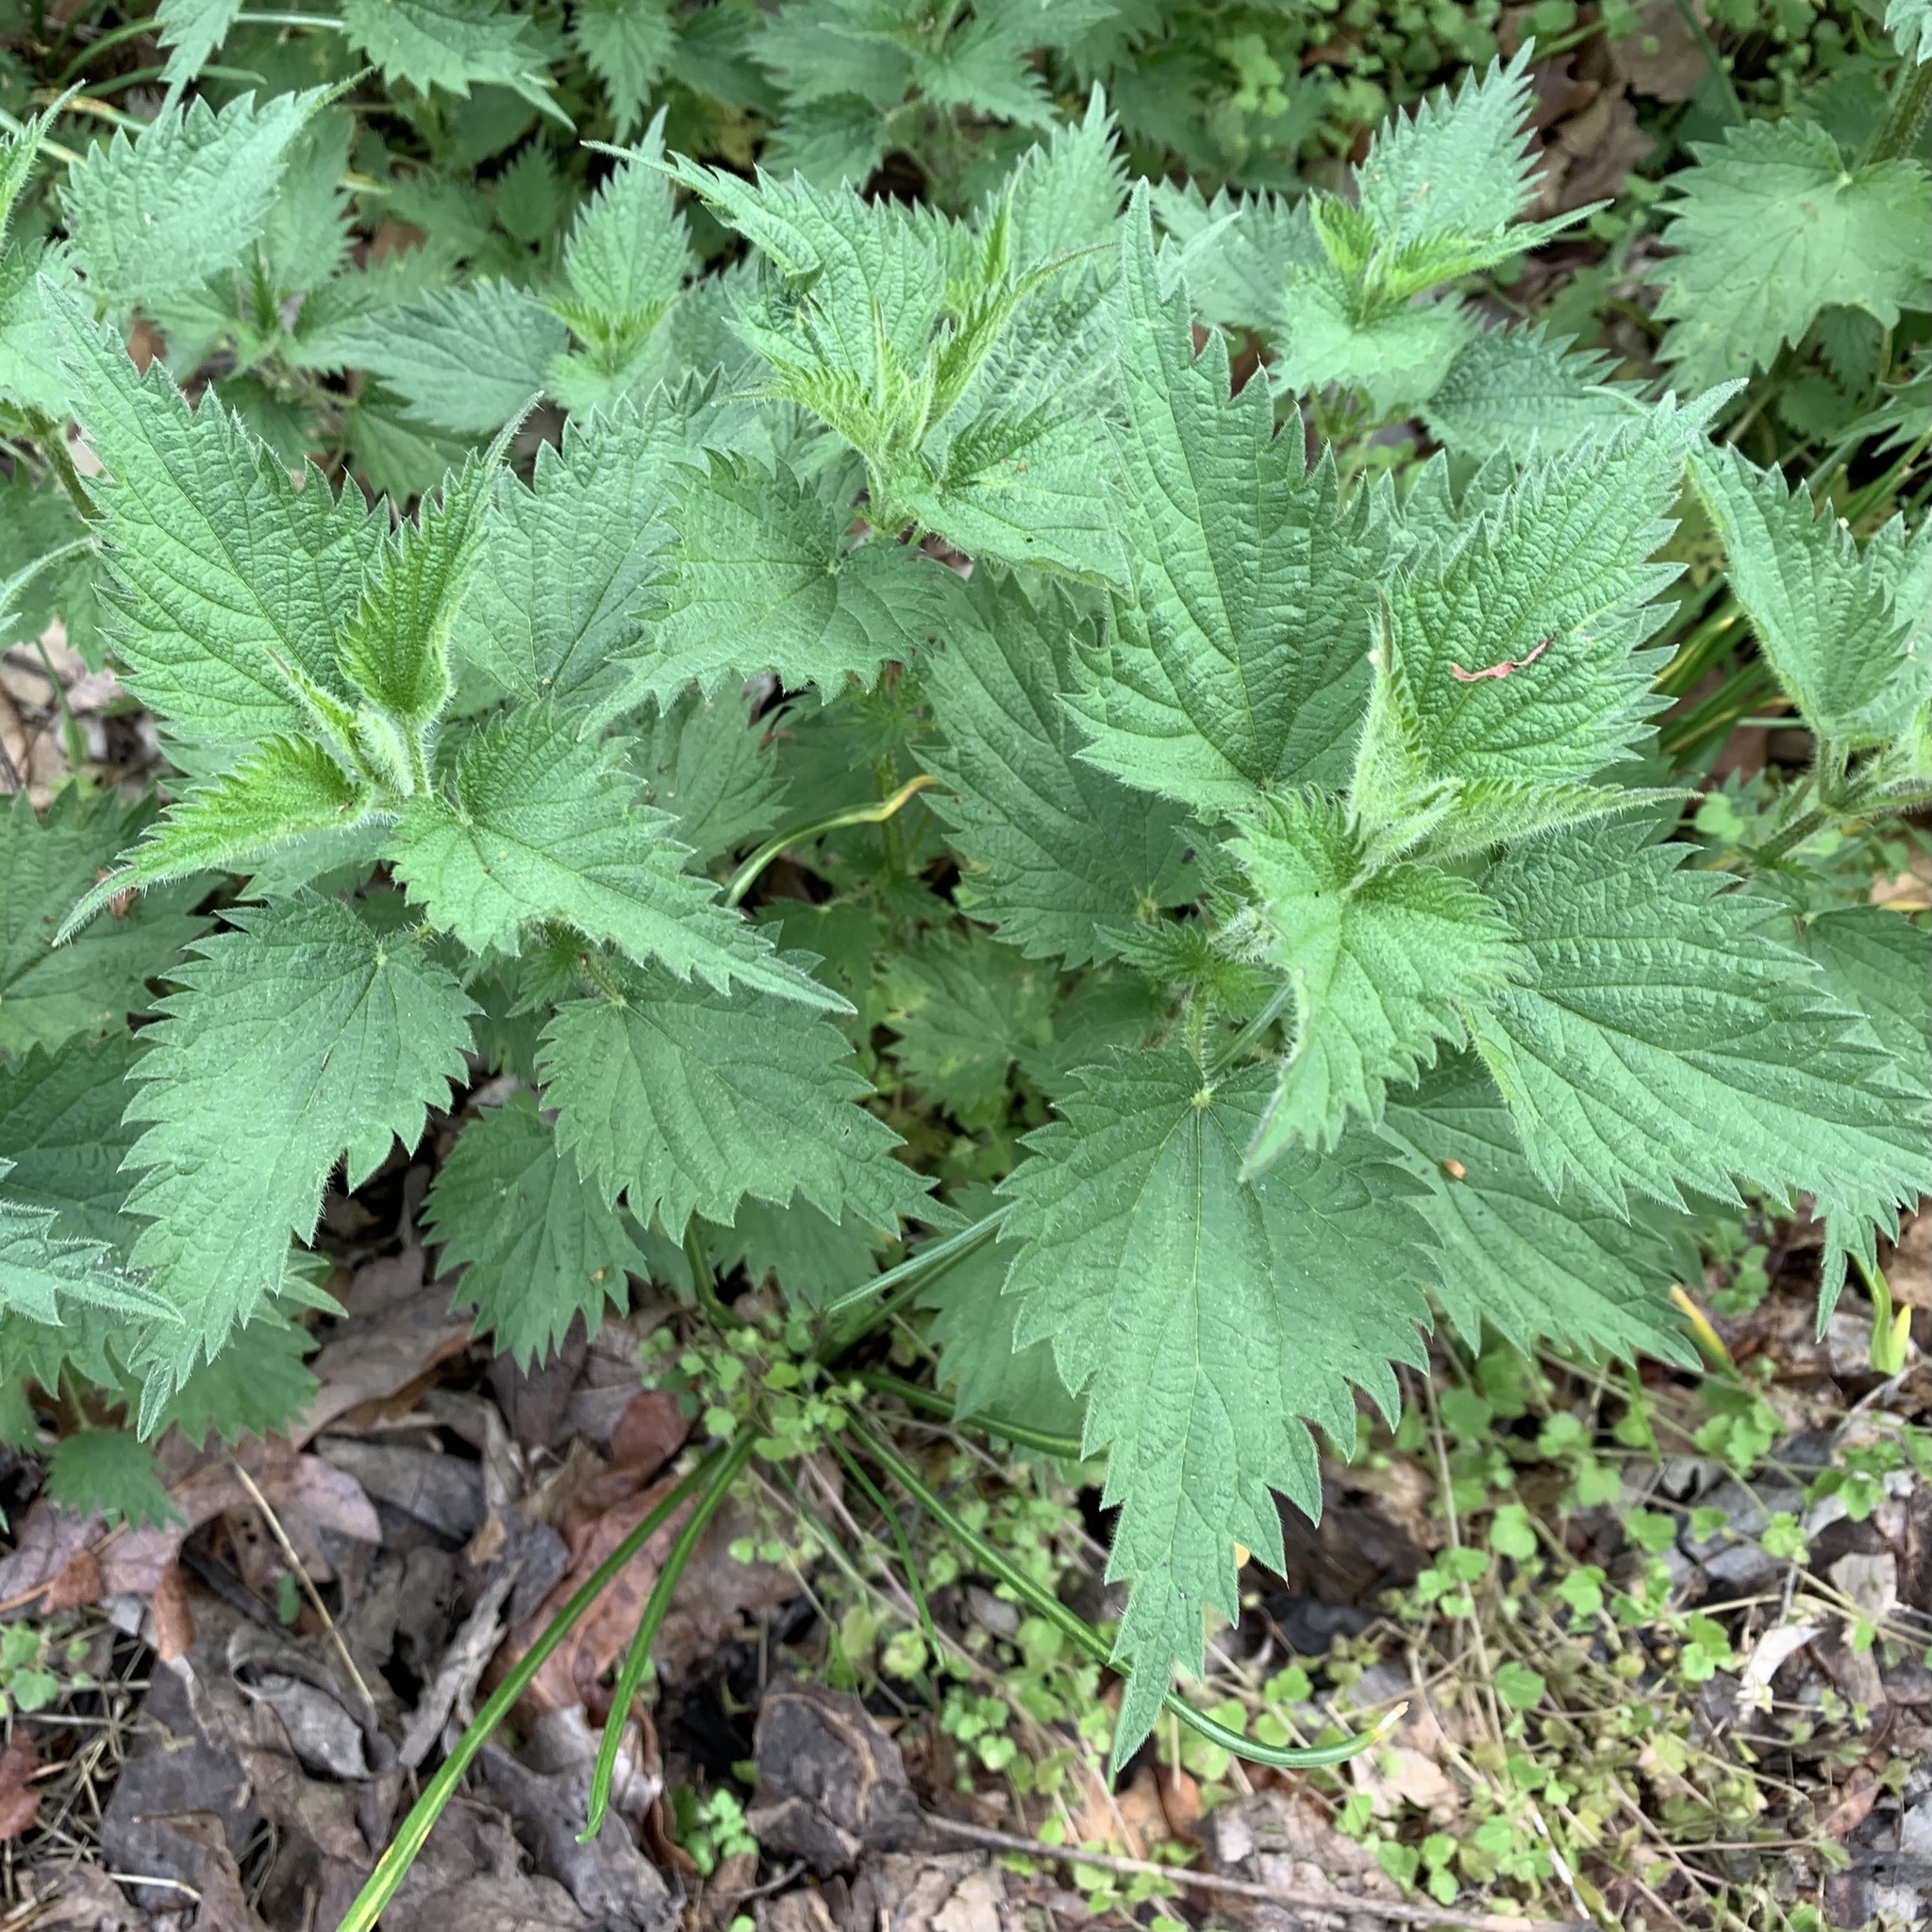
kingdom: Plantae
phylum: Tracheophyta
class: Magnoliopsida
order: Rosales
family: Urticaceae
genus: Urtica
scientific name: Urtica dioica
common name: Common nettle
